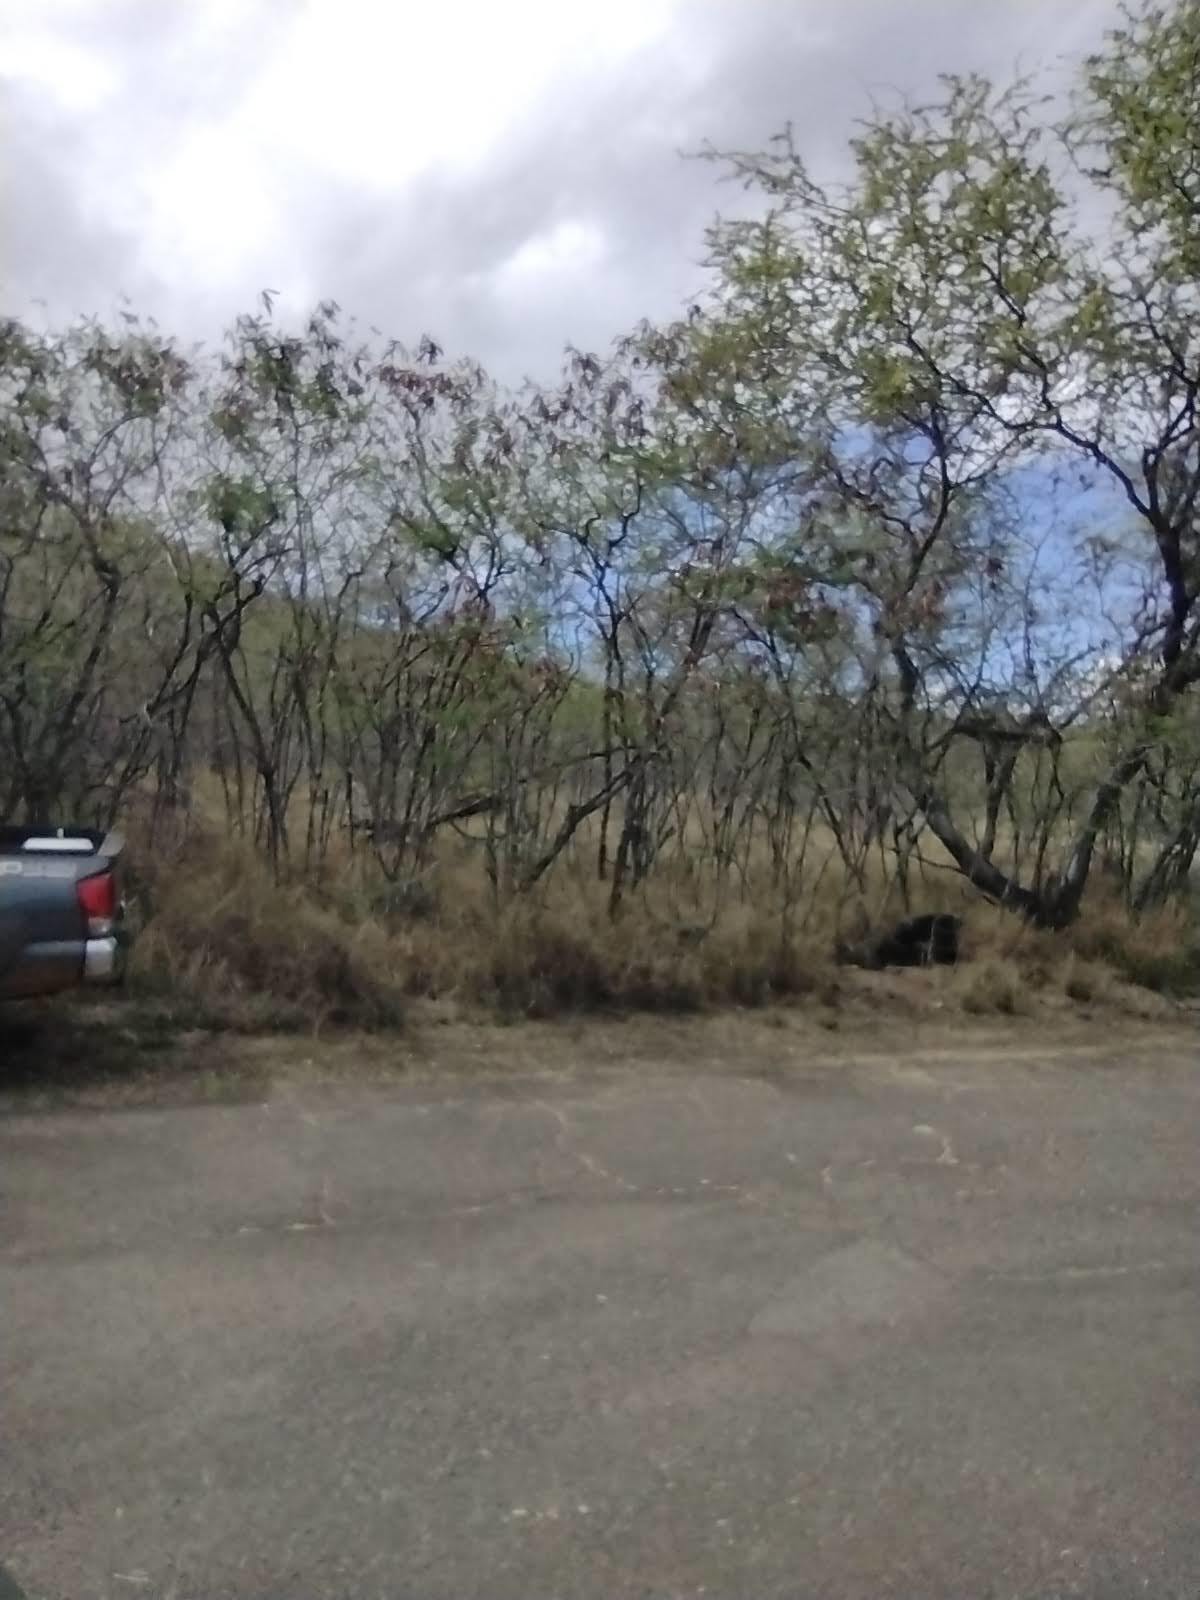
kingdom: Plantae
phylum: Tracheophyta
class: Magnoliopsida
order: Fabales
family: Fabaceae
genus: Leucaena
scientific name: Leucaena leucocephala
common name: White leadtree
